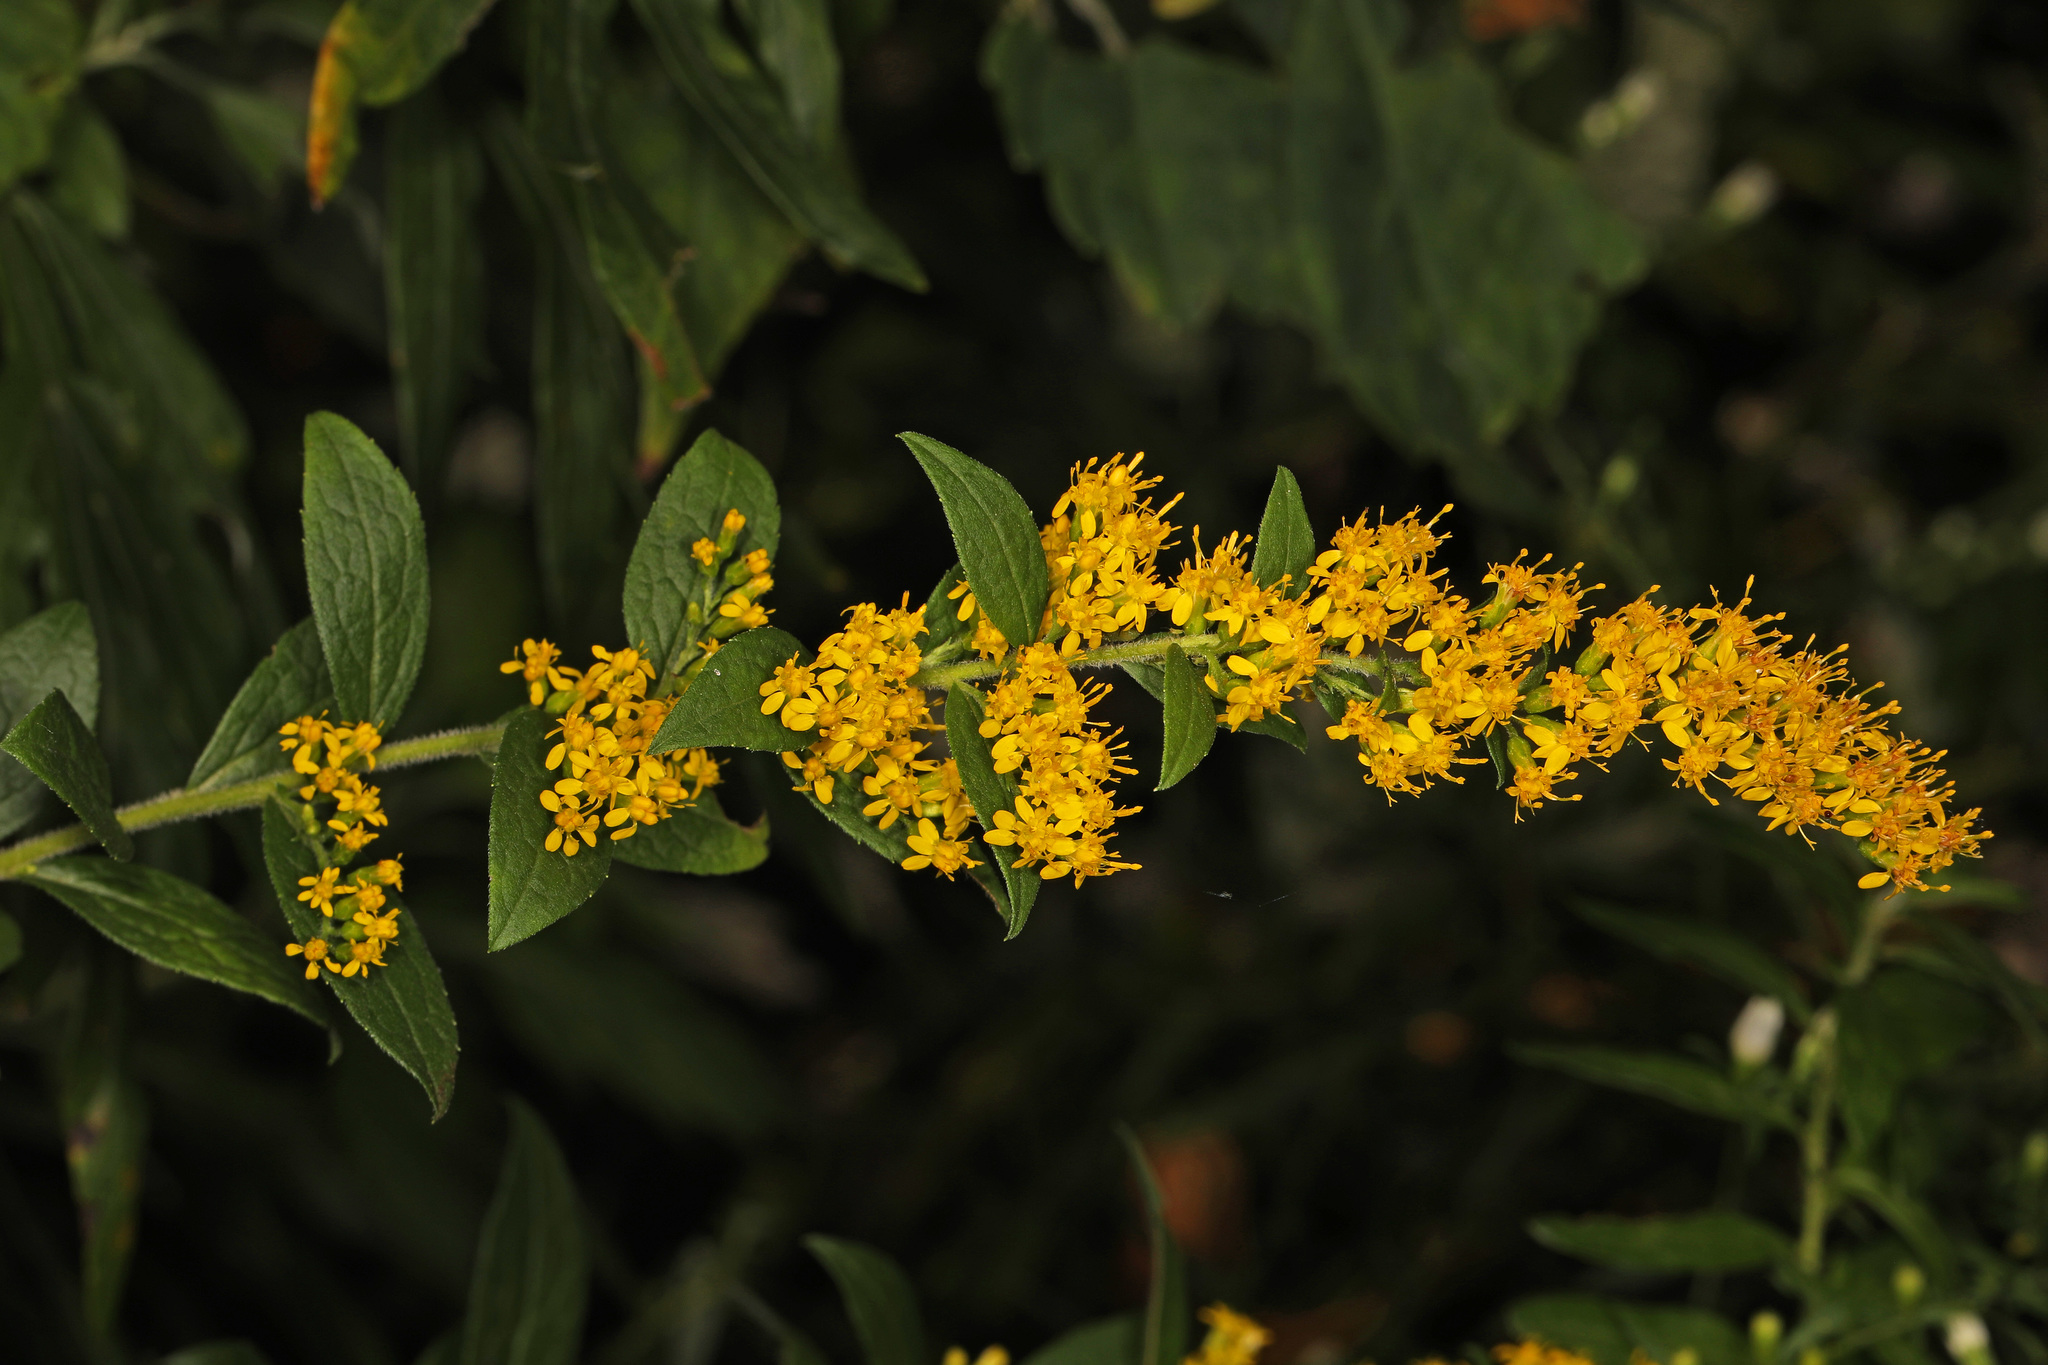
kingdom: Plantae
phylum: Tracheophyta
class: Magnoliopsida
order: Asterales
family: Asteraceae
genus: Solidago
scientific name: Solidago rugosa
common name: Rough-stemmed goldenrod
